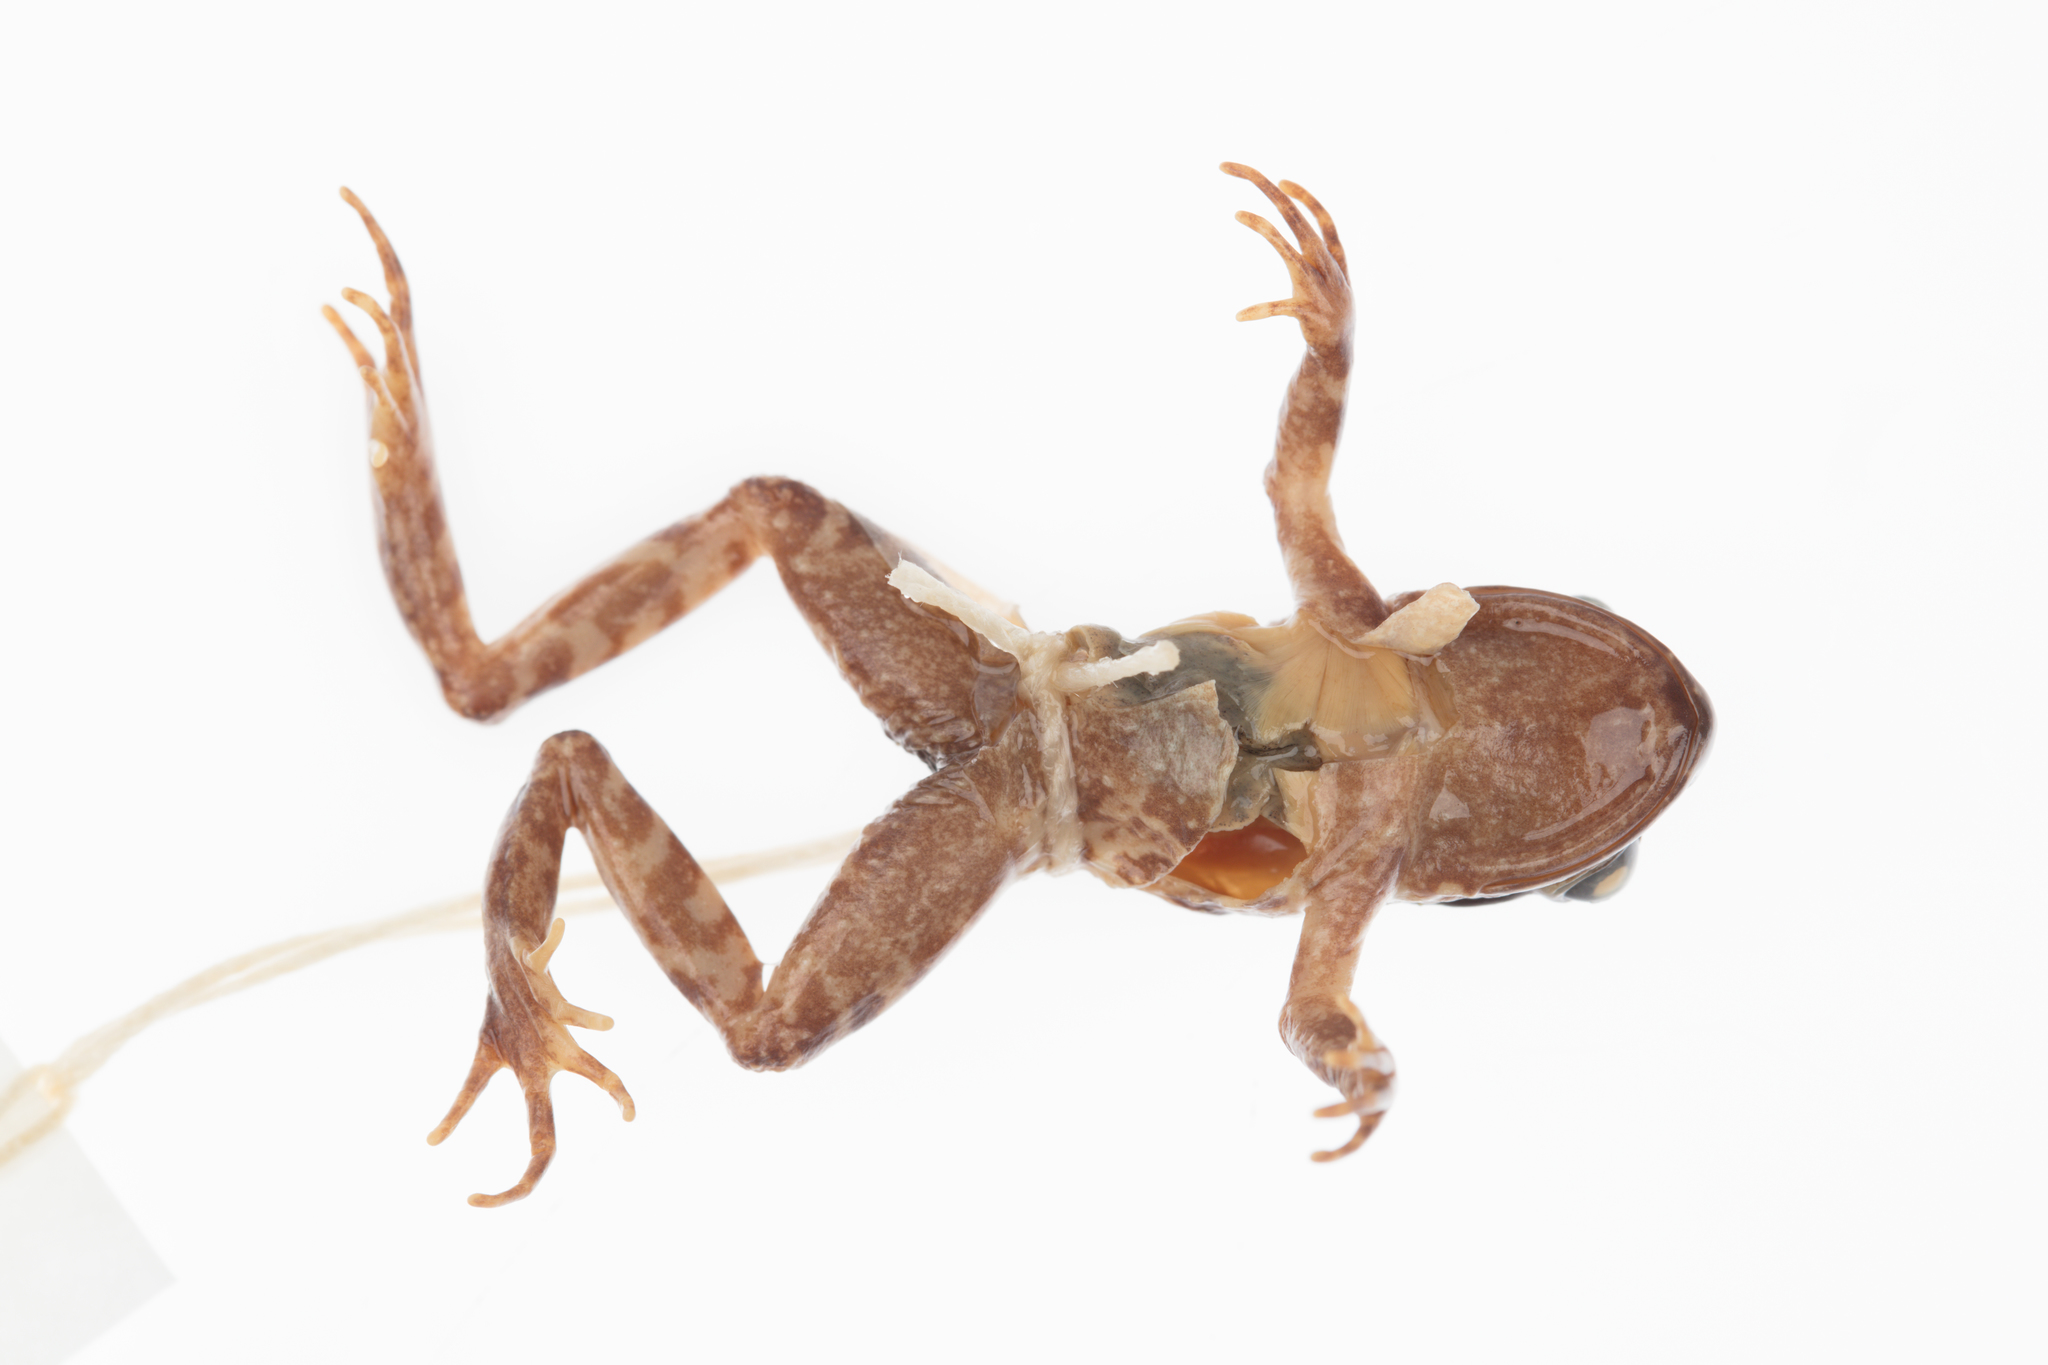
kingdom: Animalia
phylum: Chordata
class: Amphibia
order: Anura
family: Leiopelmatidae
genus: Leiopelma
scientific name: Leiopelma archeyi
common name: Archey's frog
